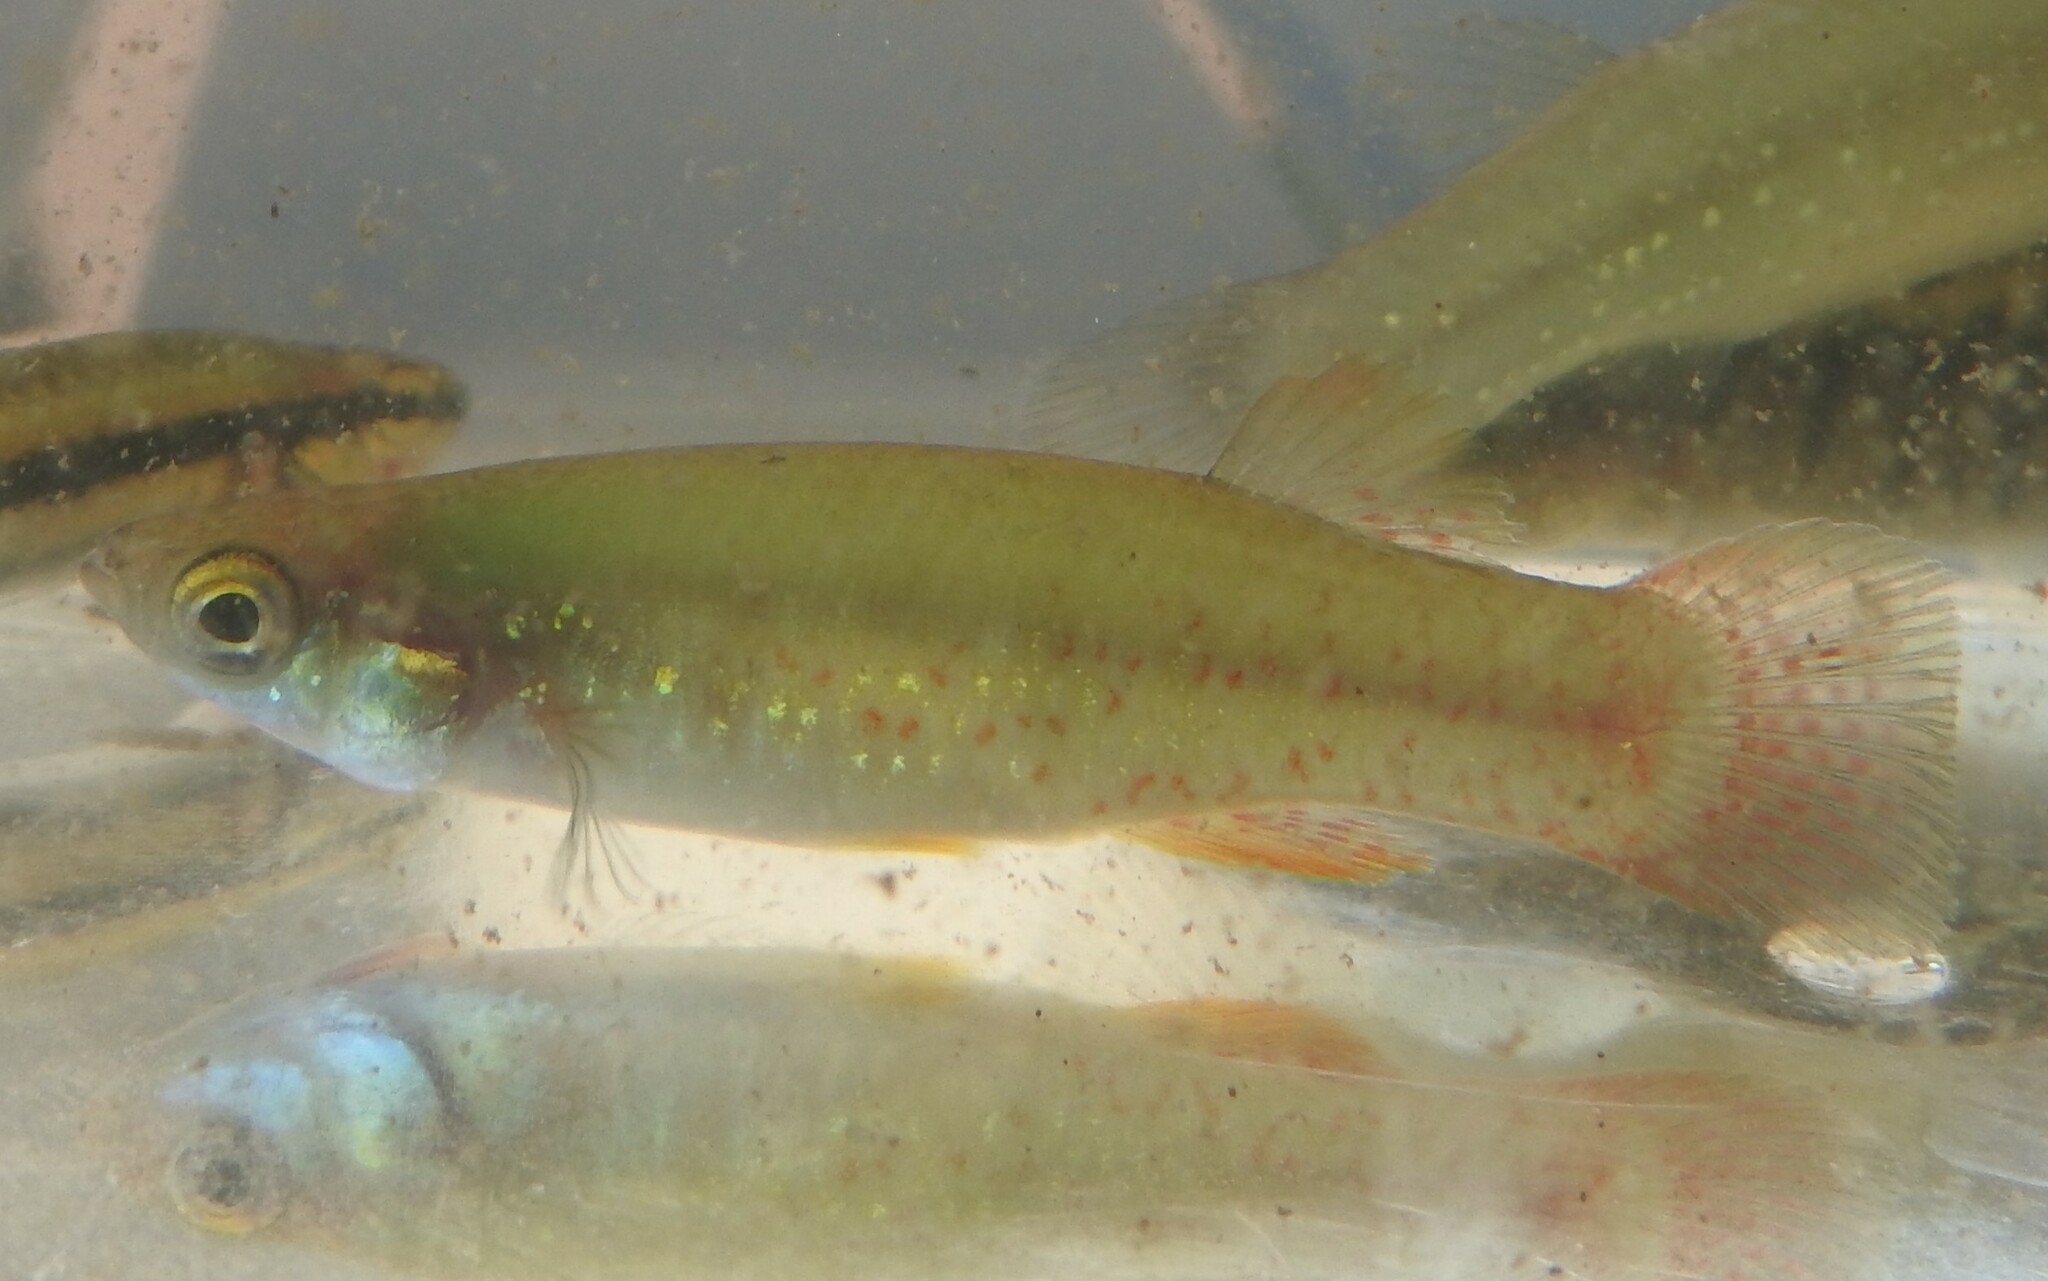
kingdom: Animalia
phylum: Chordata
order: Cyprinodontiformes
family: Fundulidae
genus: Fundulus
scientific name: Fundulus chrysotus
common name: Golden topminnow
